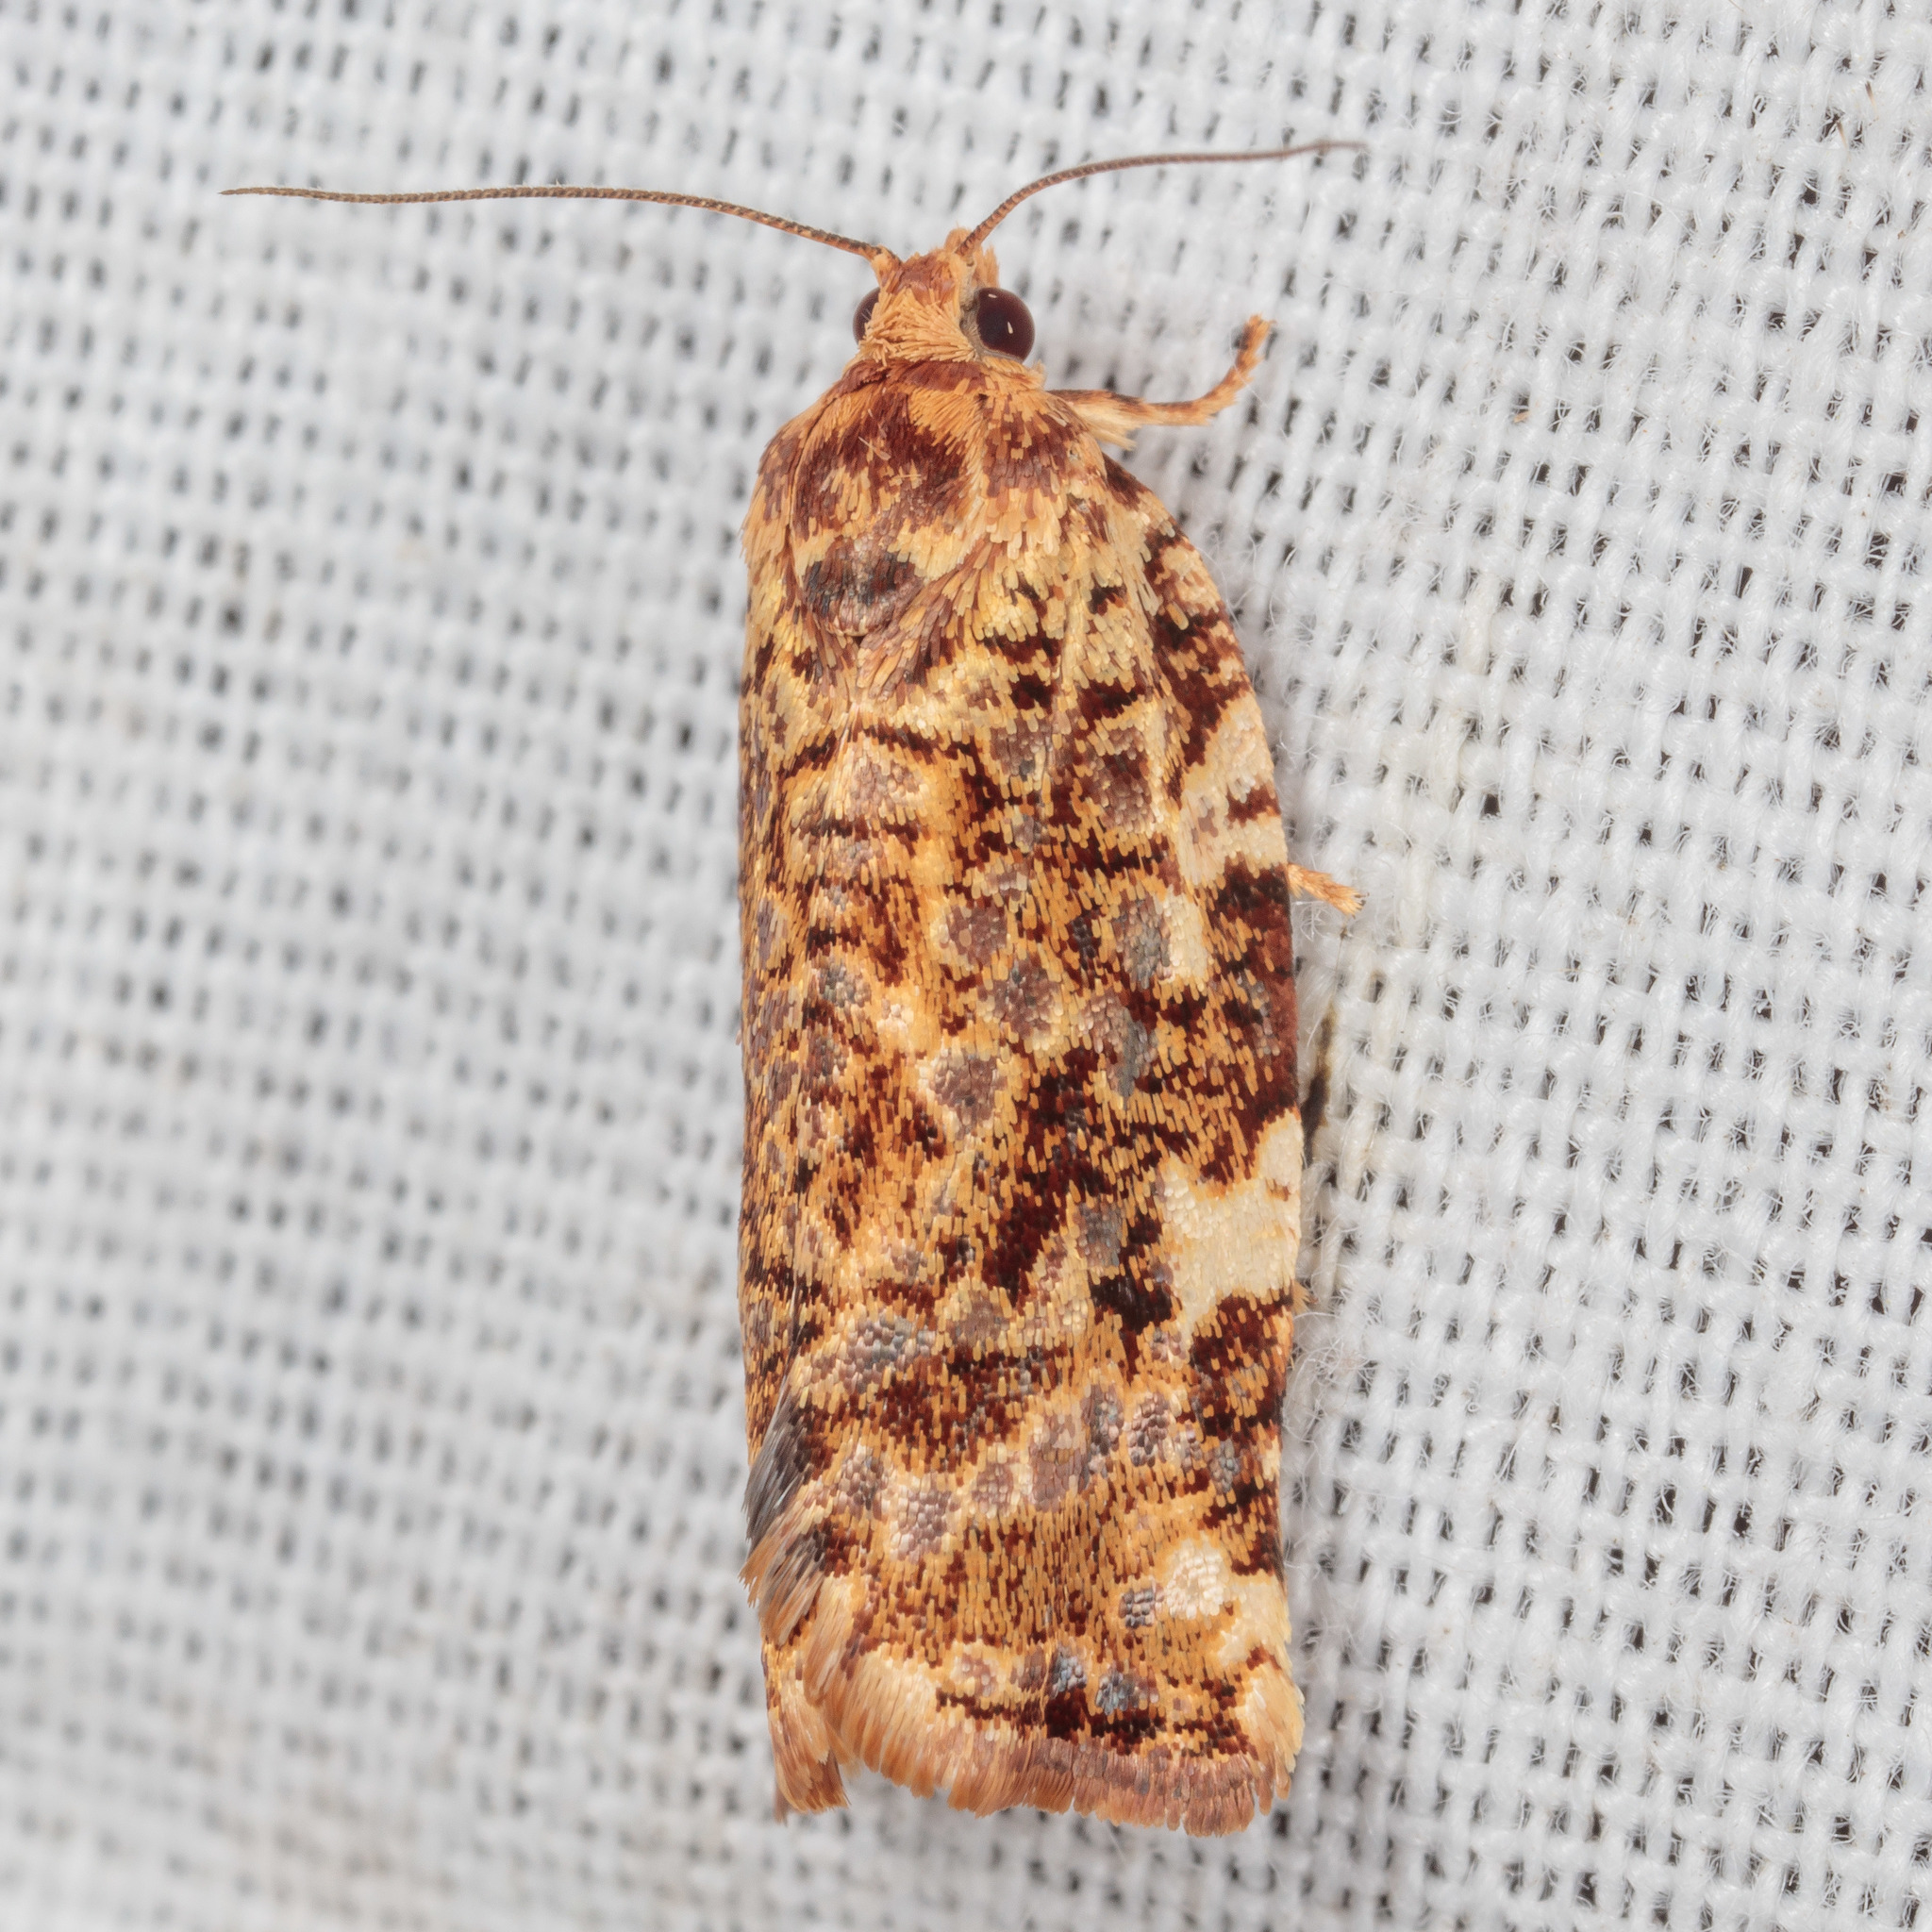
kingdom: Animalia
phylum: Arthropoda
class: Insecta
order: Lepidoptera
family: Tortricidae
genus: Archips
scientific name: Archips argyrospila
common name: Fruit-tree leafroller moth
